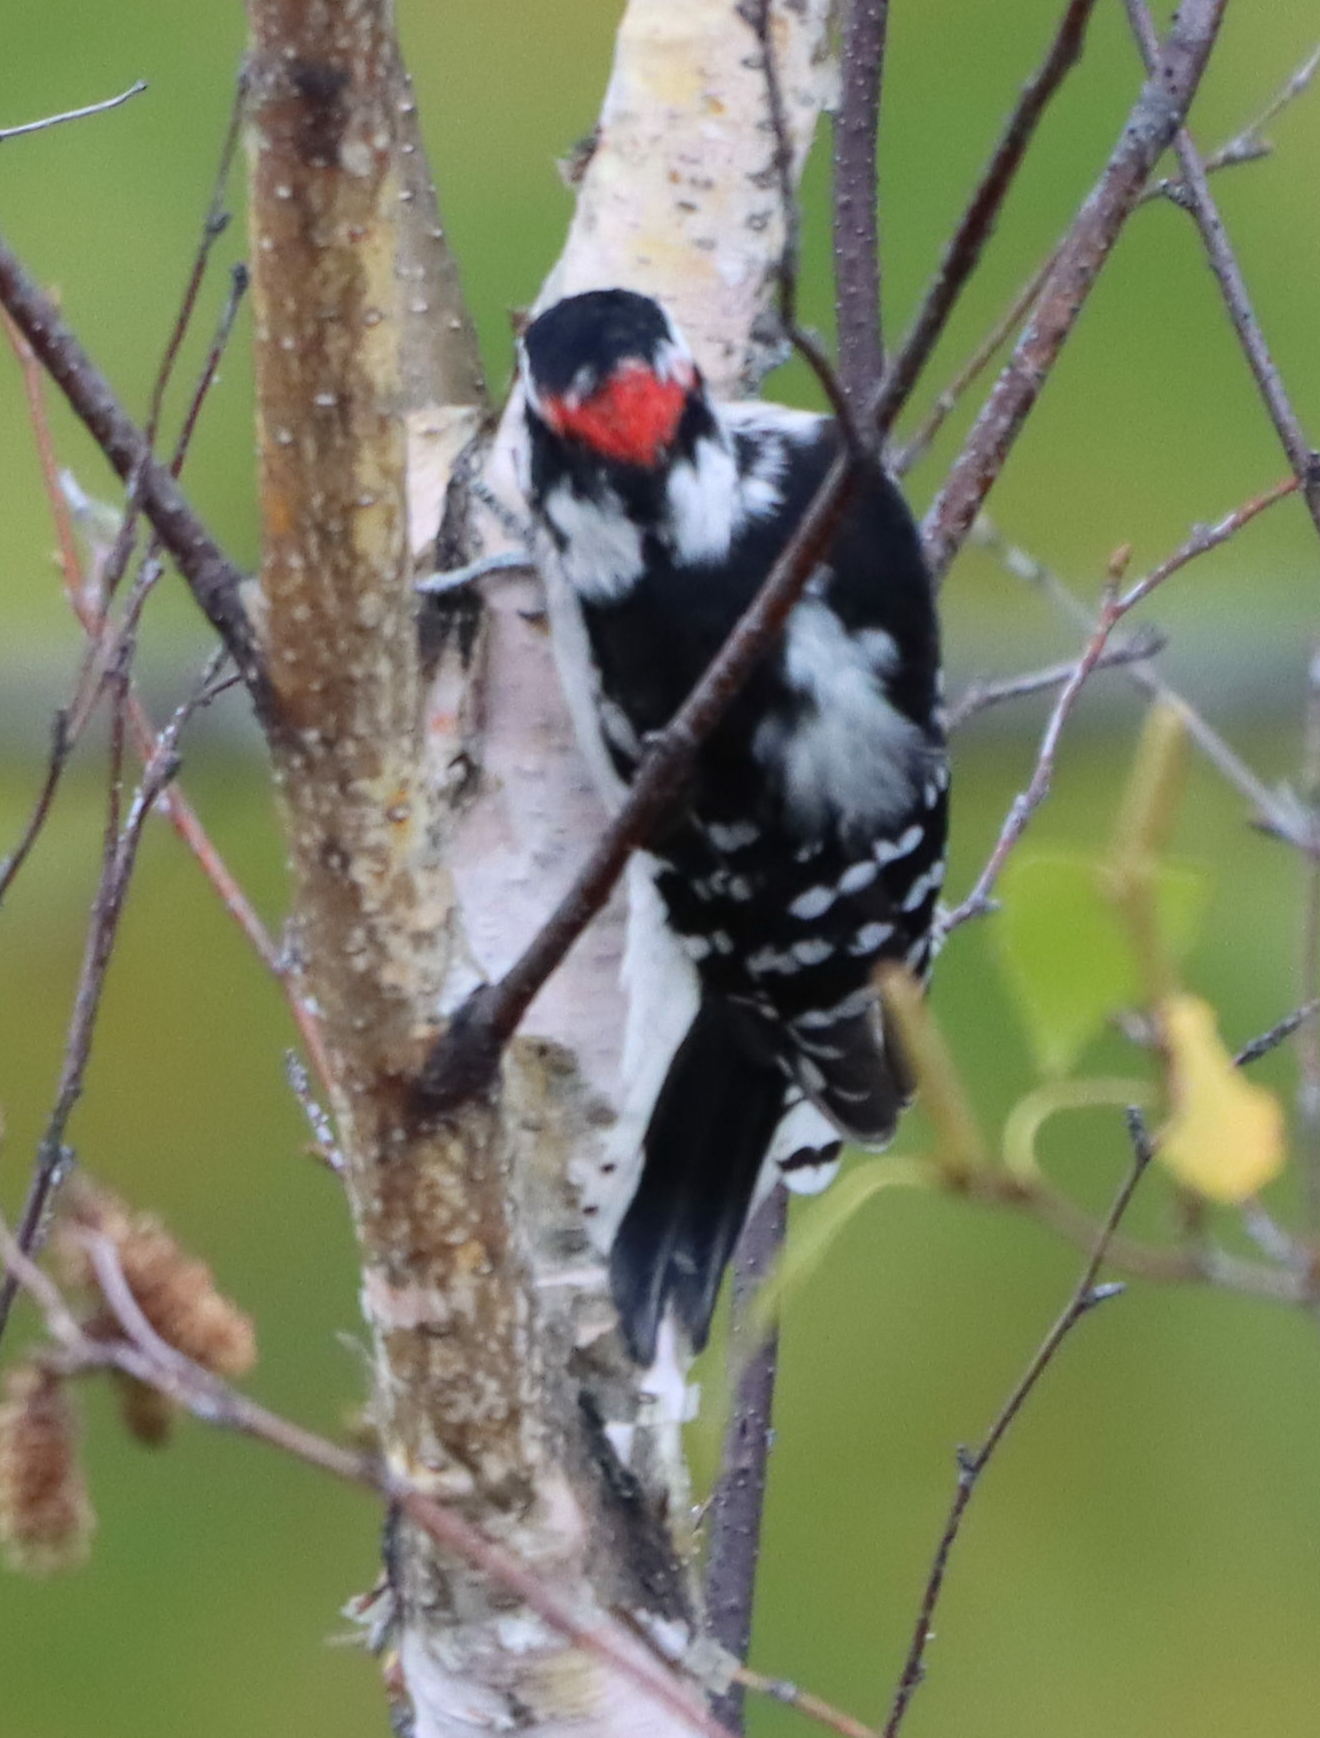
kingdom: Animalia
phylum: Chordata
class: Aves
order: Piciformes
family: Picidae
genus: Dryobates
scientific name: Dryobates pubescens
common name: Downy woodpecker
